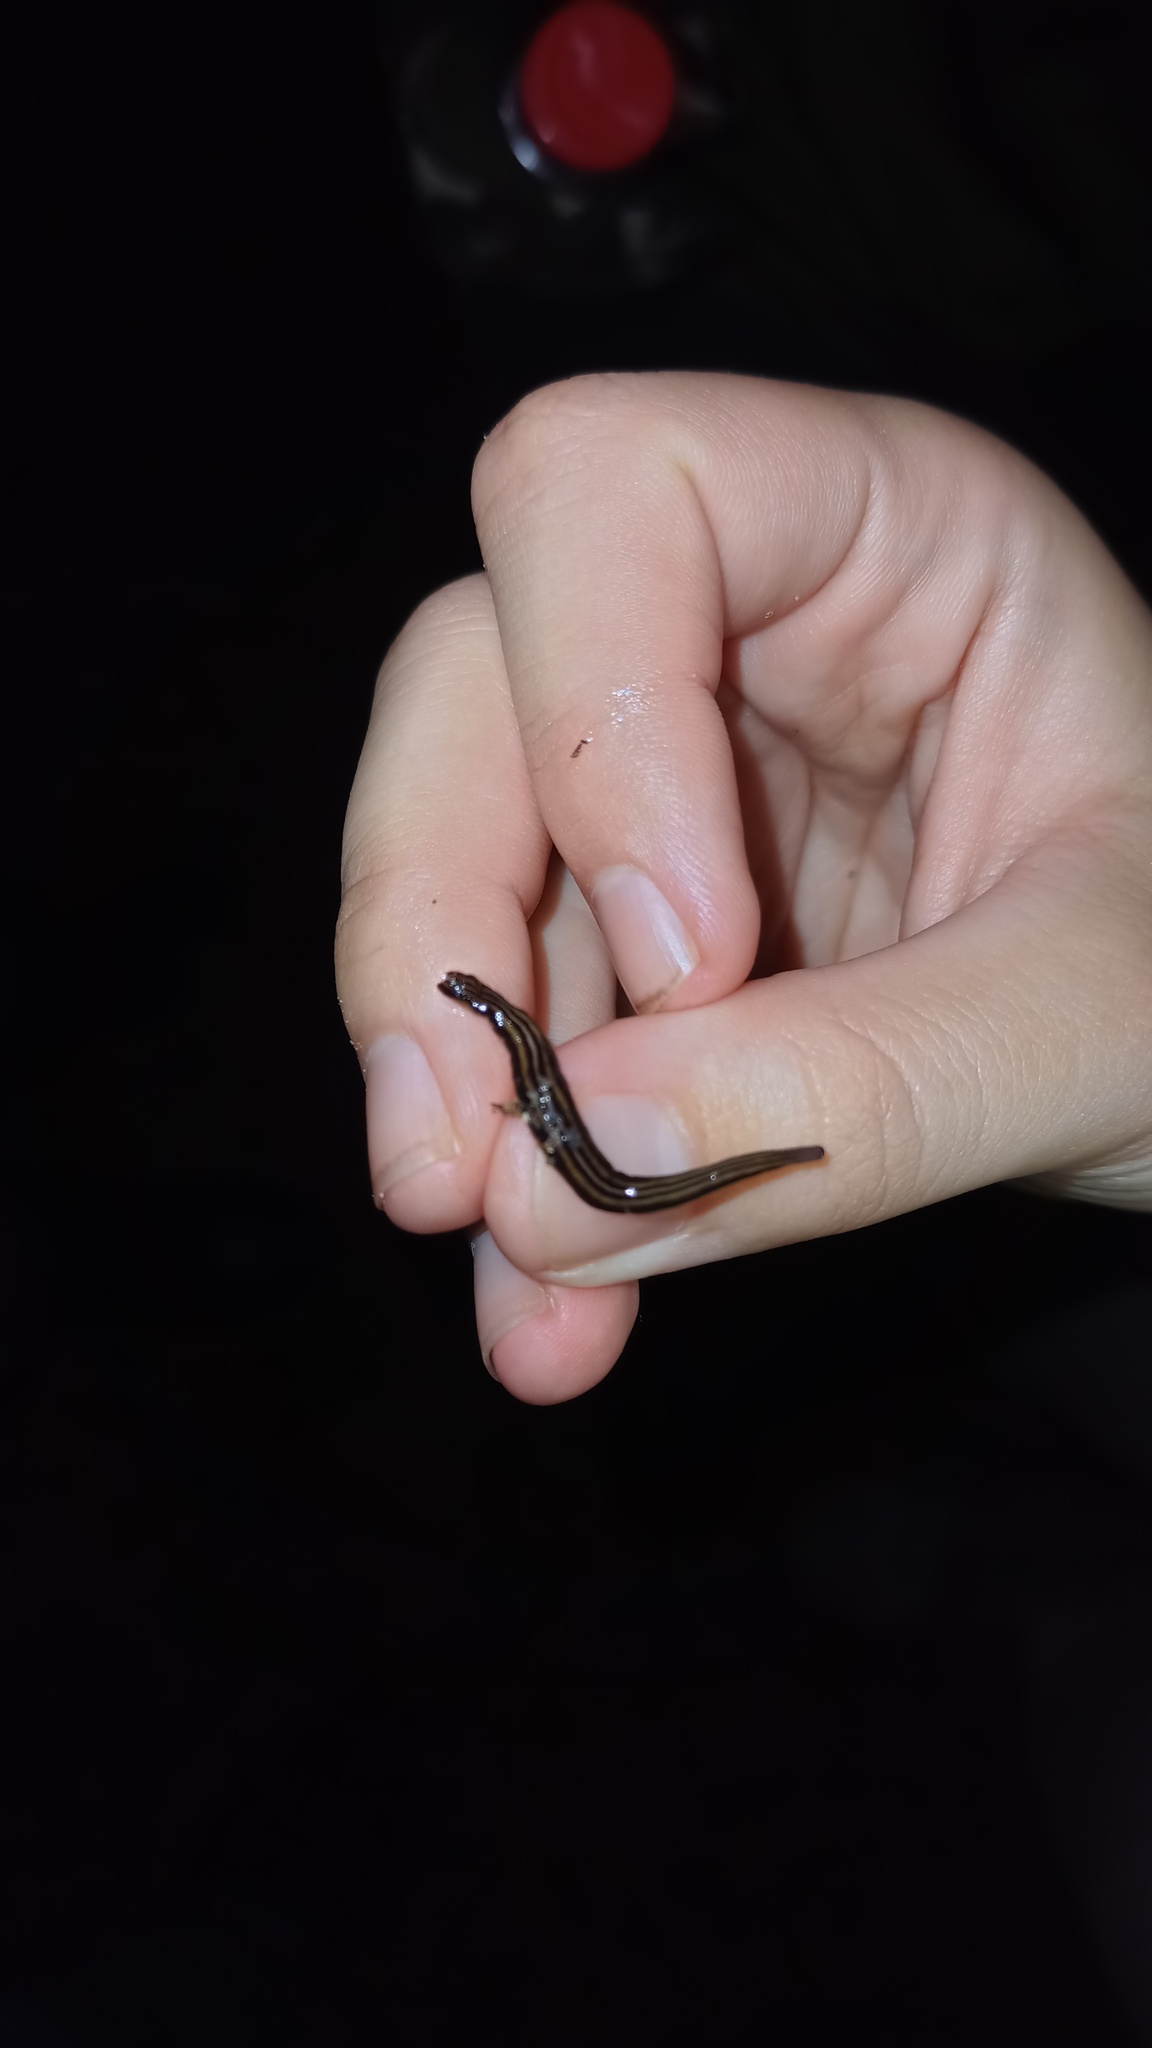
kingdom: Animalia
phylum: Platyhelminthes
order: Tricladida
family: Geoplanidae
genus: Issoca
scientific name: Issoca rezendei
